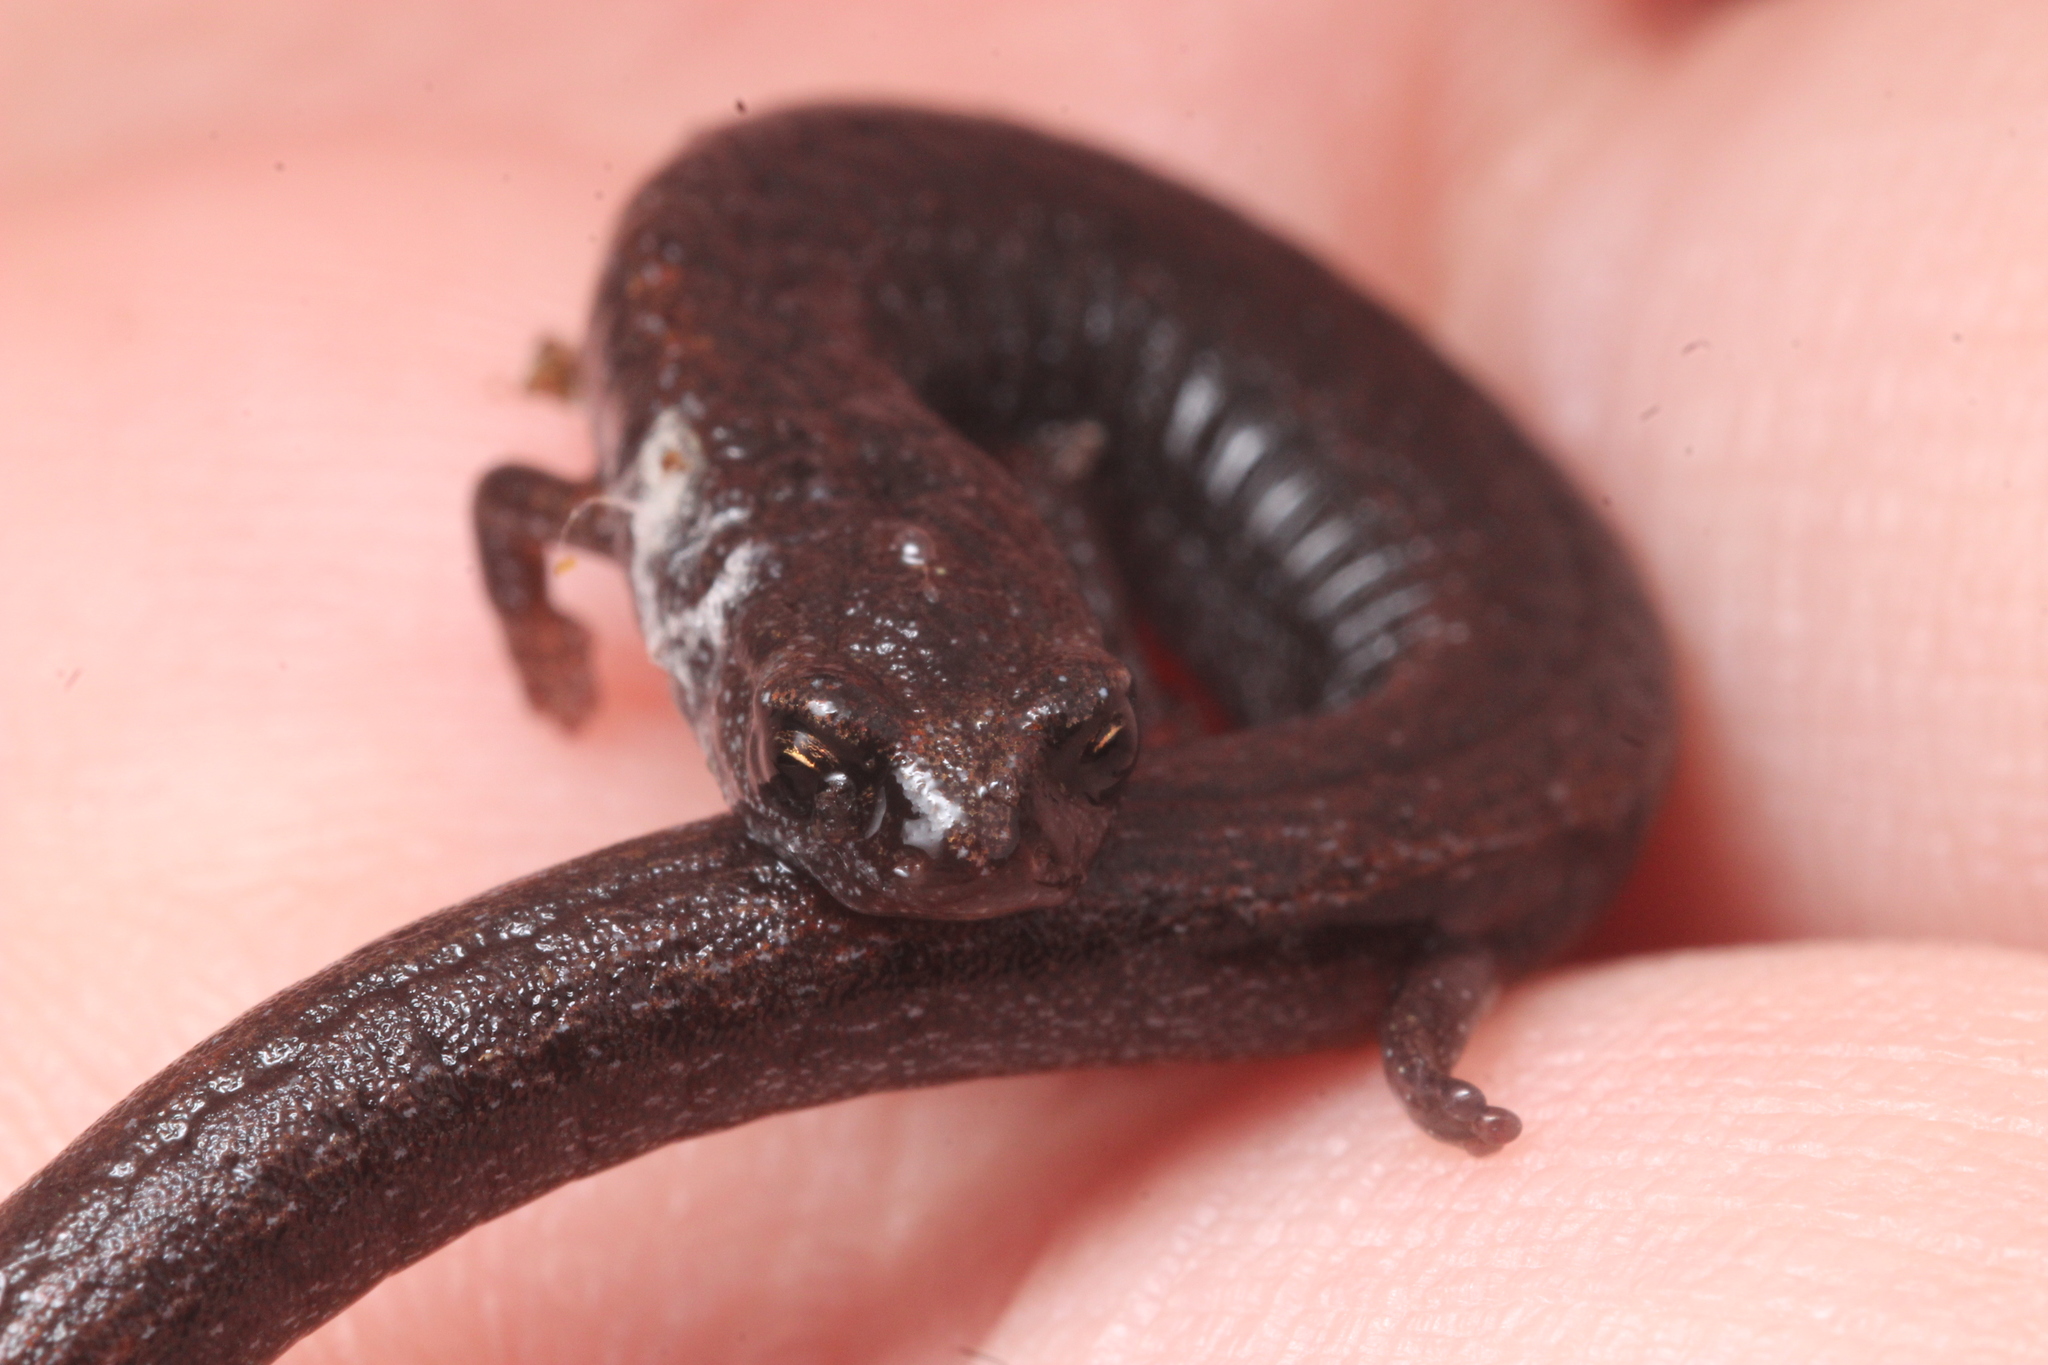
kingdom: Animalia
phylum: Chordata
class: Amphibia
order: Caudata
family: Plethodontidae
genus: Batrachoseps
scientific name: Batrachoseps attenuatus
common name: California slender salamander
